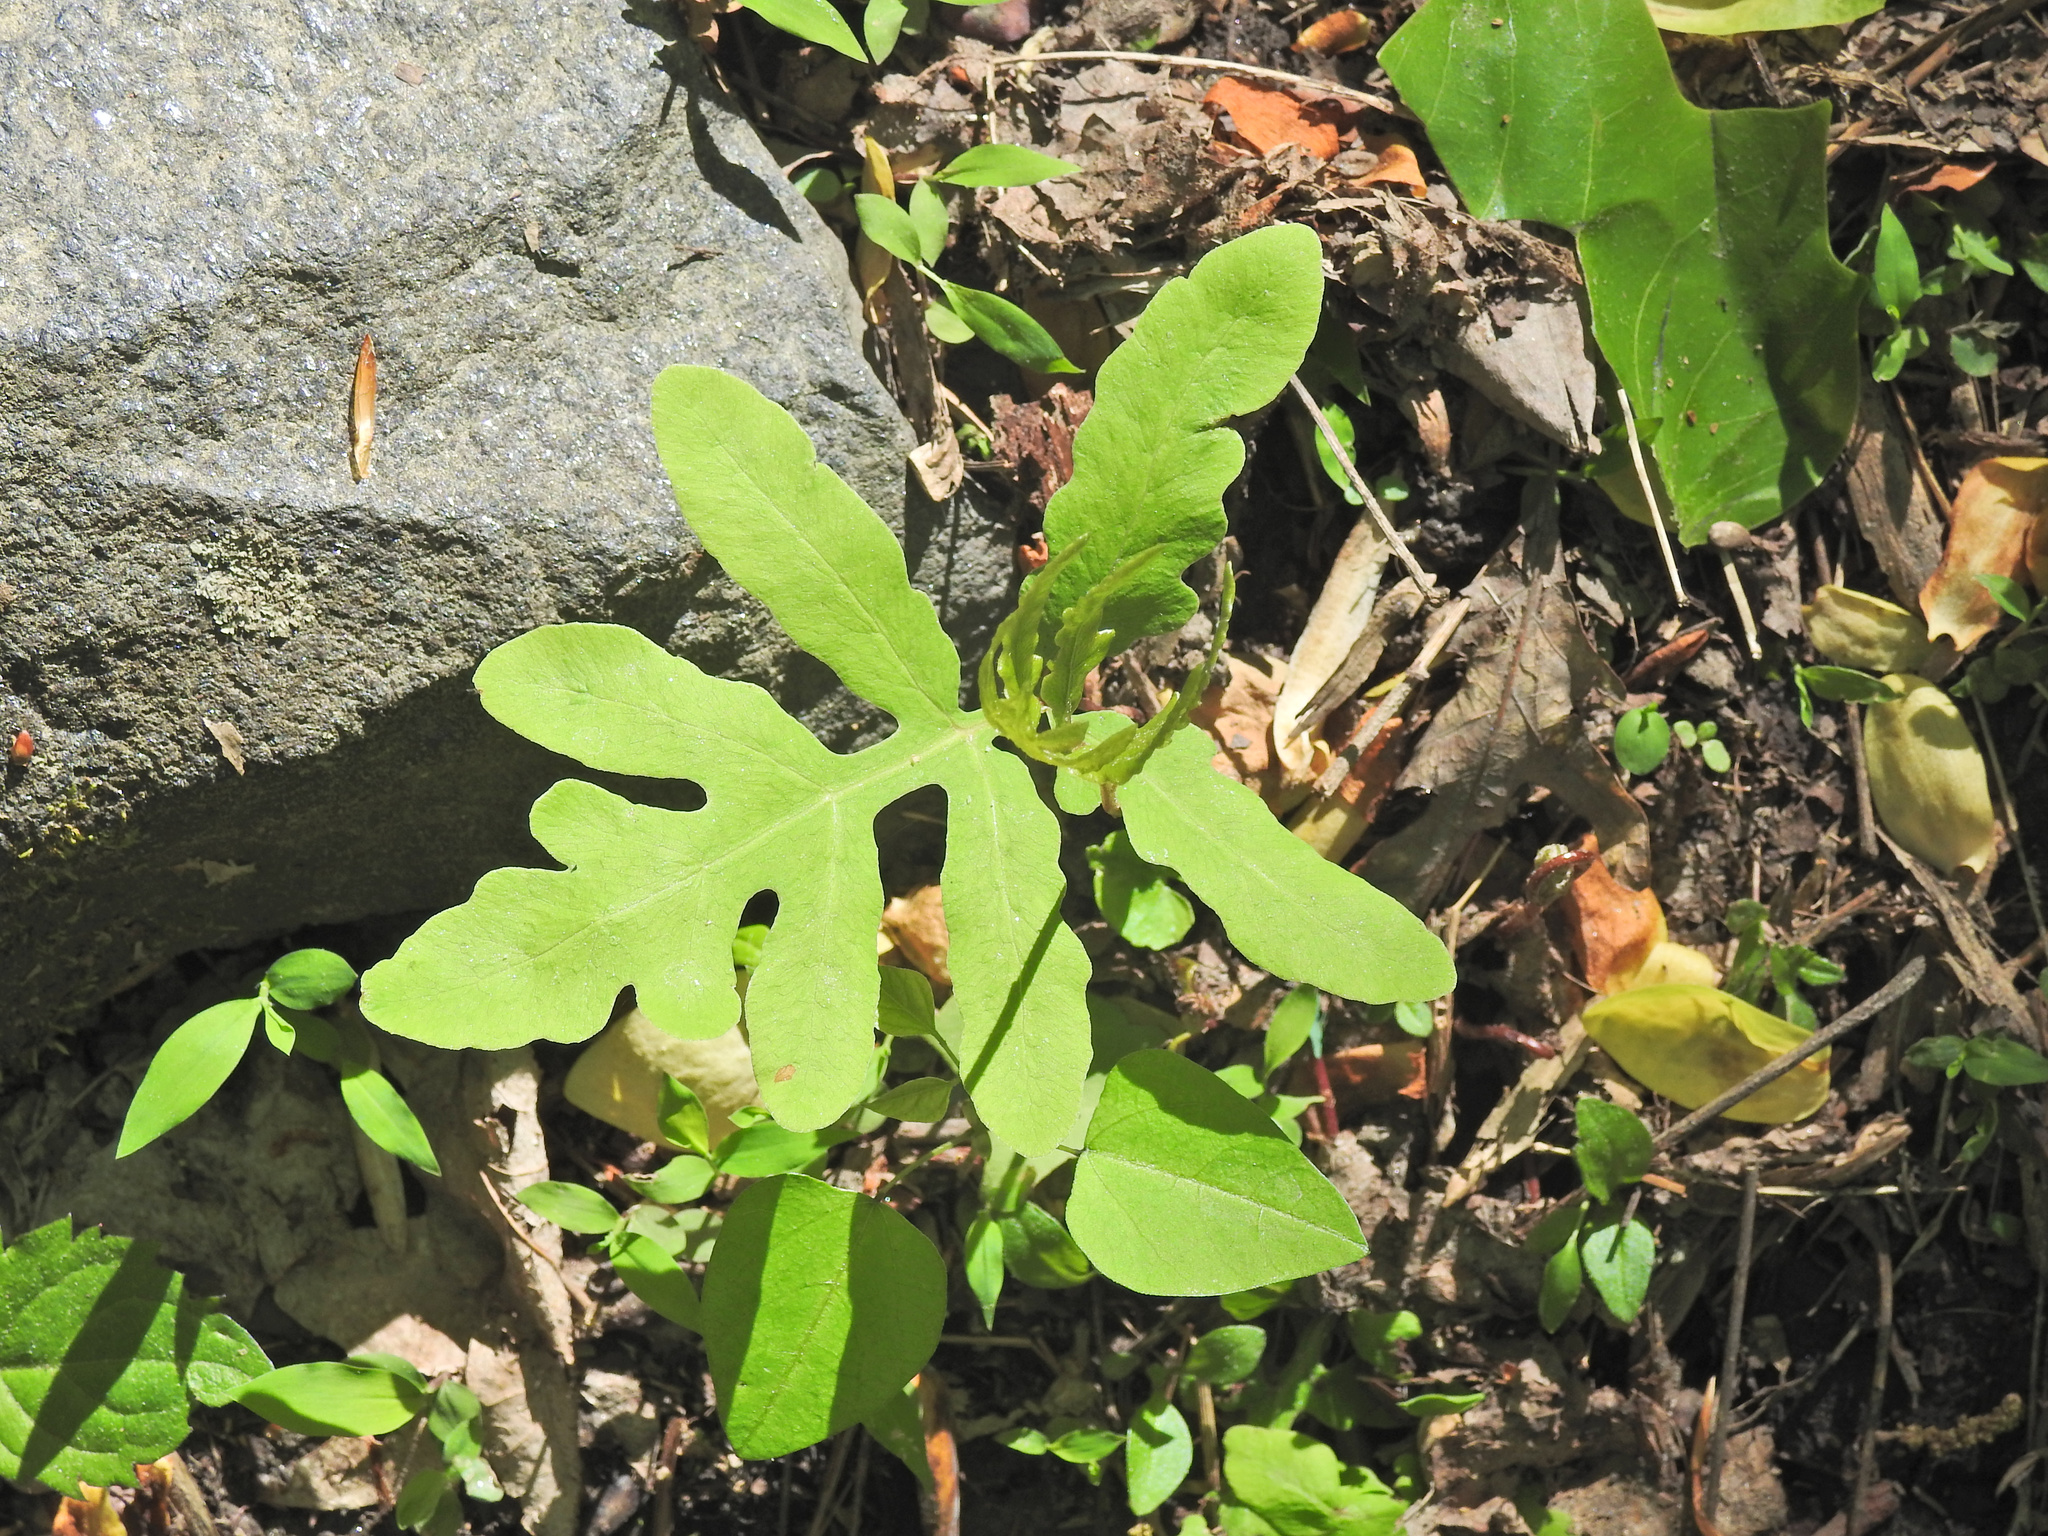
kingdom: Plantae
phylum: Tracheophyta
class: Polypodiopsida
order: Polypodiales
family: Onocleaceae
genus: Onoclea
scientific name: Onoclea sensibilis
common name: Sensitive fern
